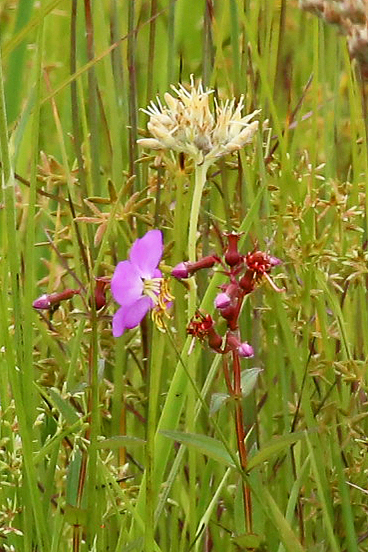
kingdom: Plantae
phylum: Tracheophyta
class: Magnoliopsida
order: Myrtales
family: Melastomataceae
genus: Rhexia
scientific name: Rhexia virginica
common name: Common meadow beauty
